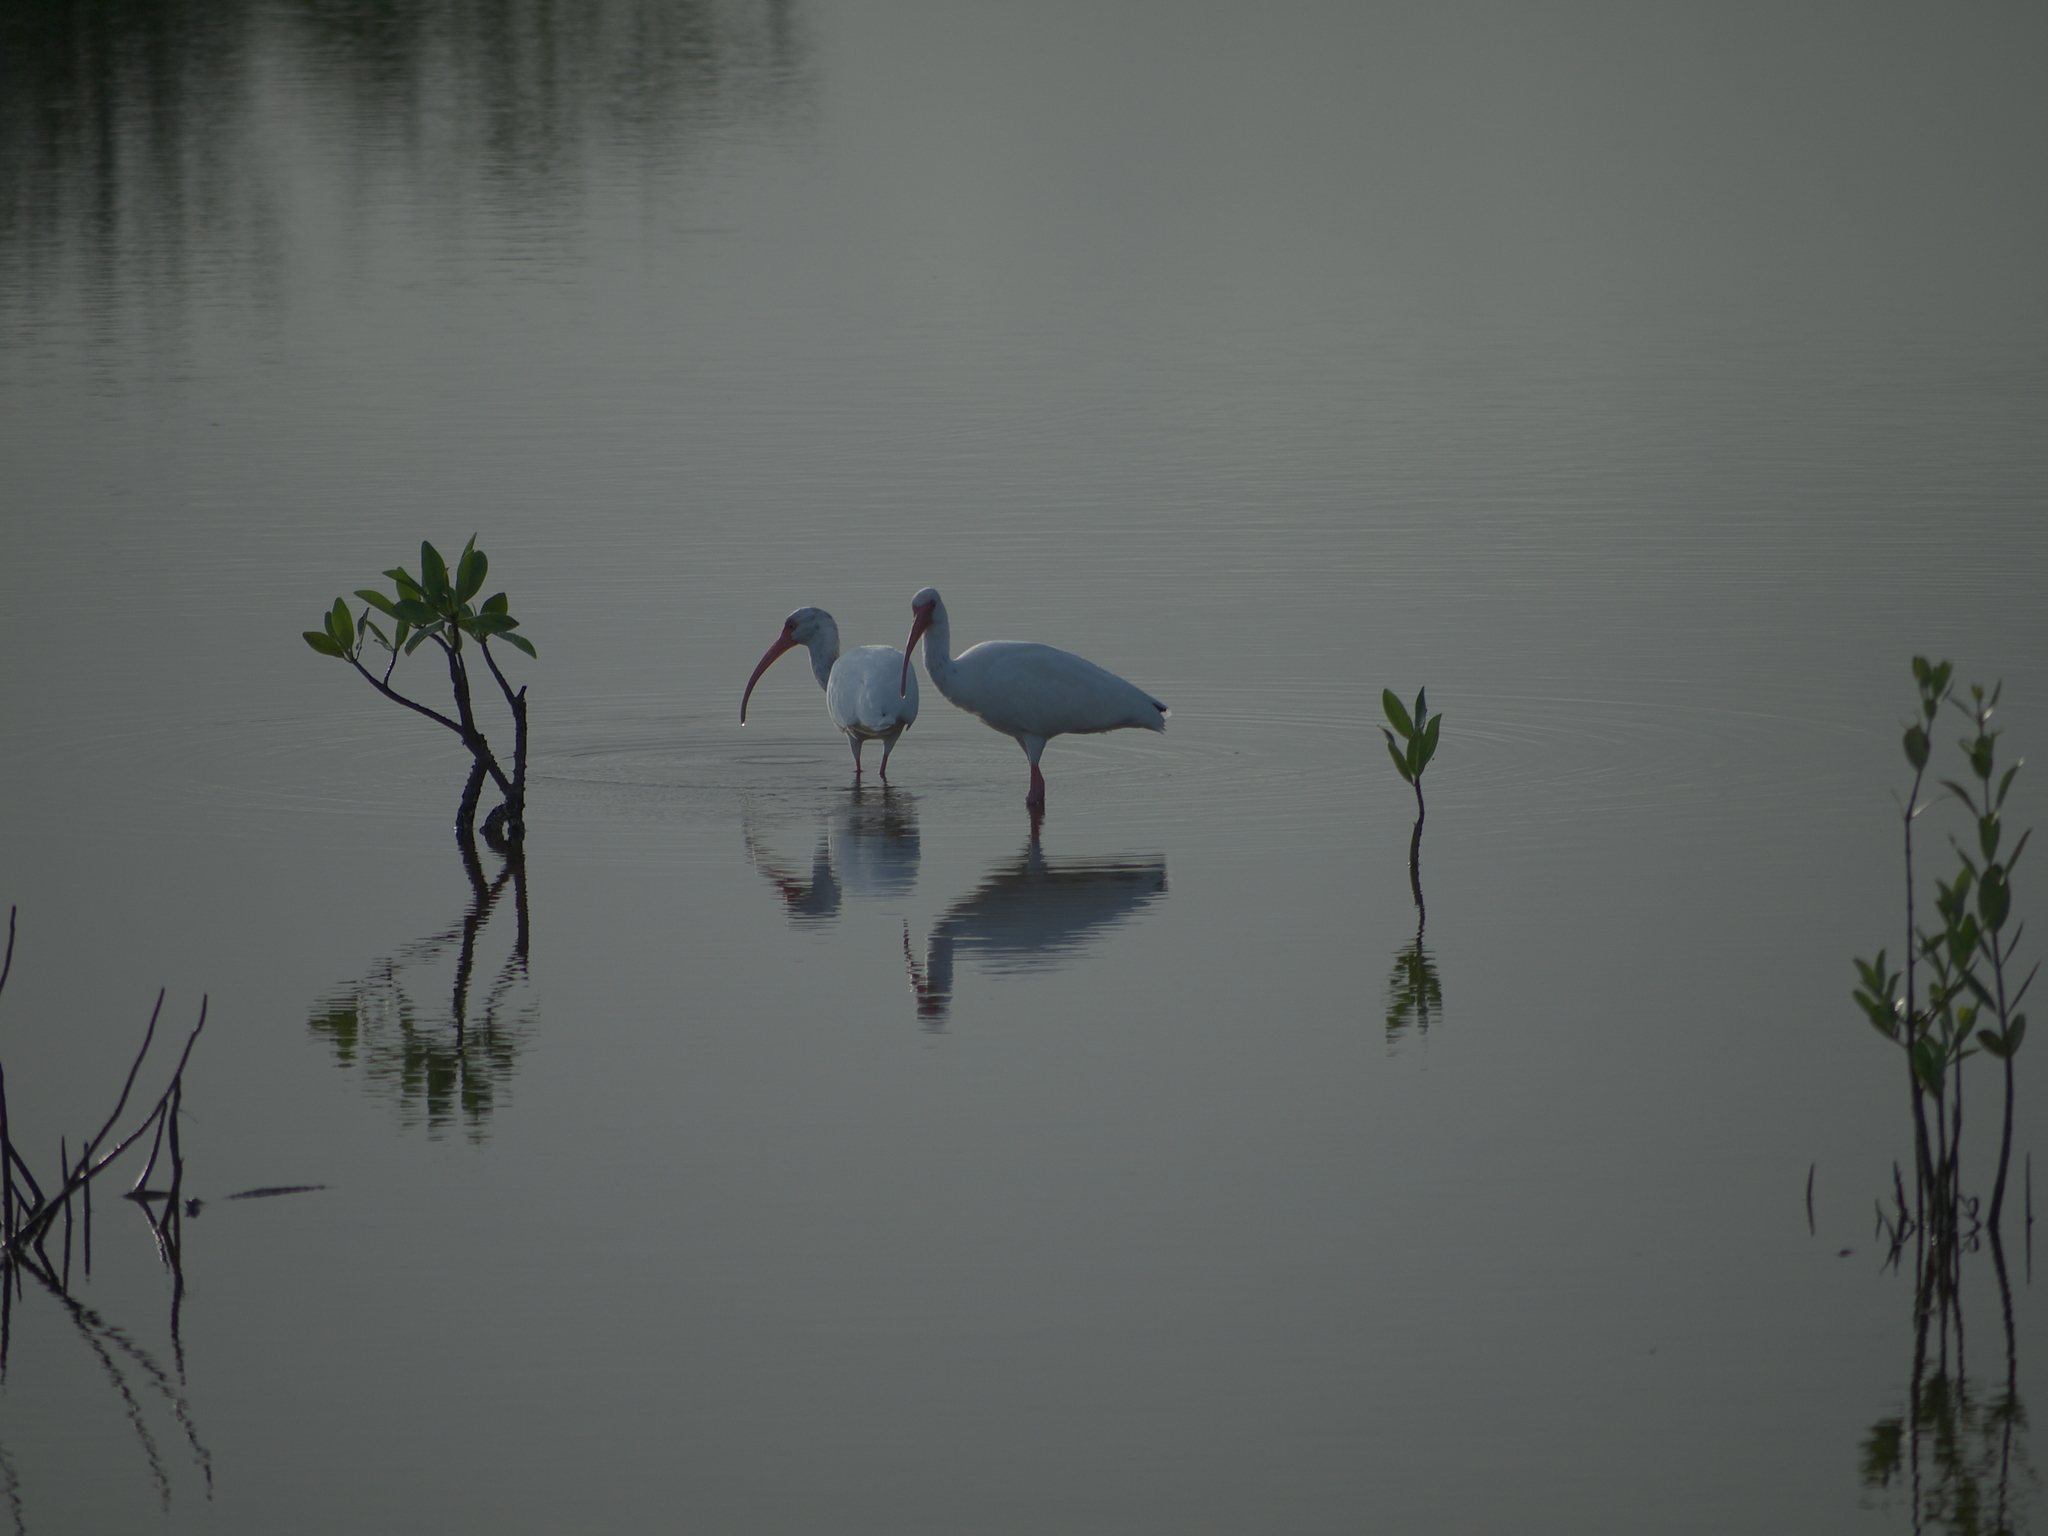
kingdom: Animalia
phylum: Chordata
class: Aves
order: Pelecaniformes
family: Threskiornithidae
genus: Eudocimus
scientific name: Eudocimus albus
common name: White ibis
